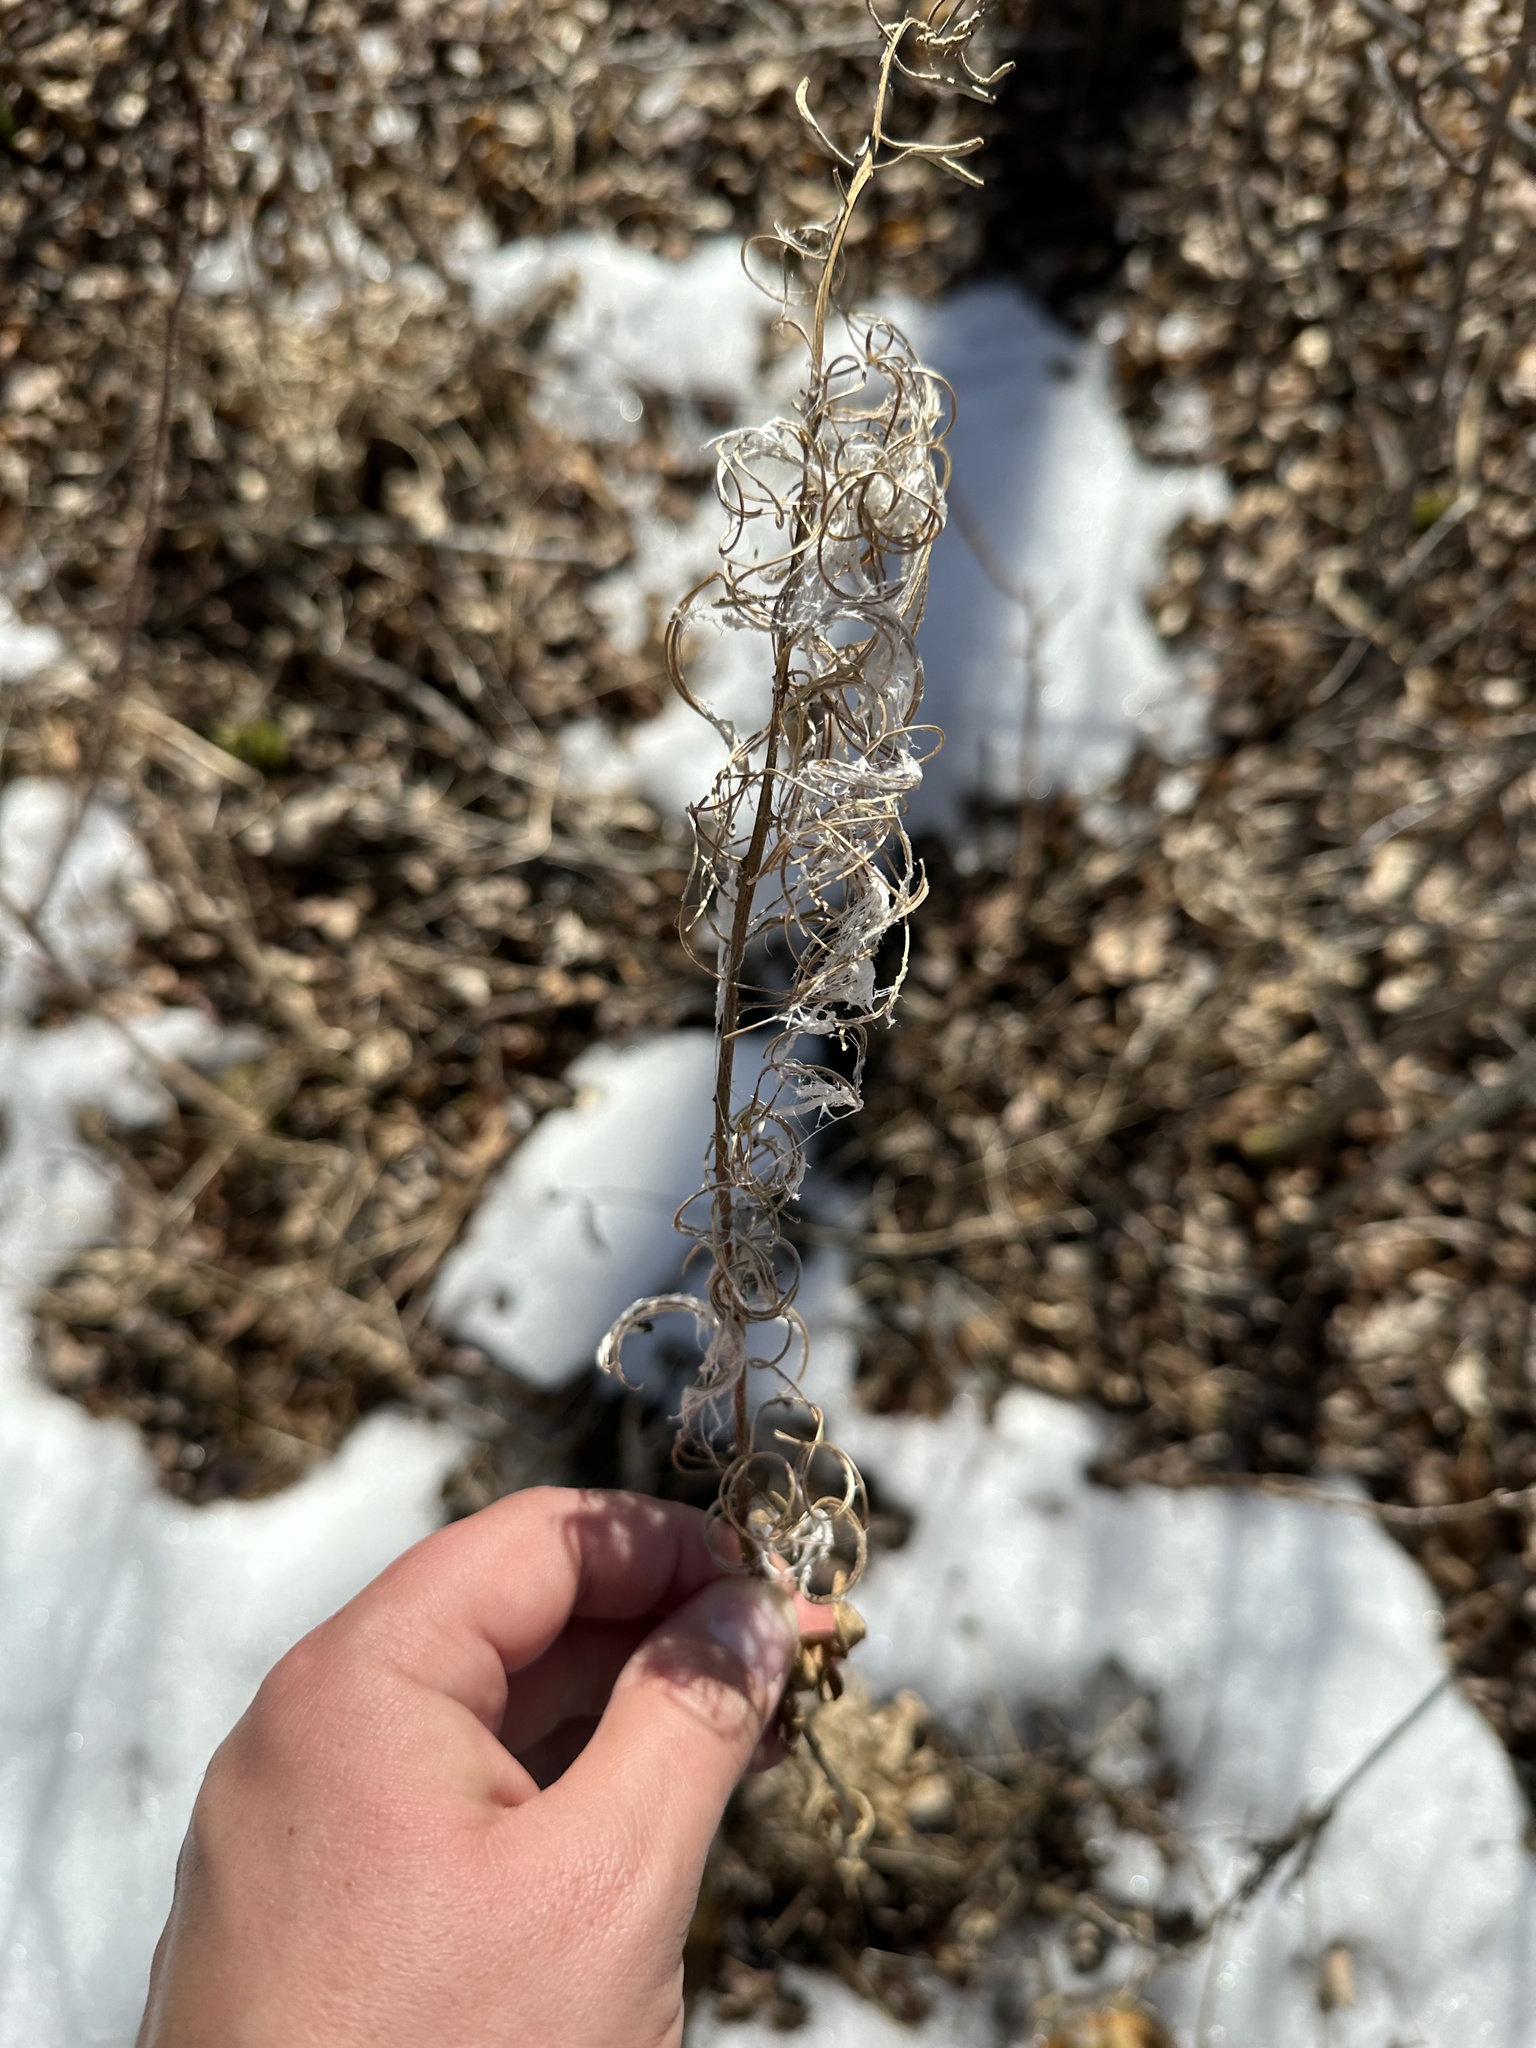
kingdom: Plantae
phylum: Tracheophyta
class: Magnoliopsida
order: Myrtales
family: Onagraceae
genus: Chamaenerion
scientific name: Chamaenerion angustifolium
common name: Fireweed
